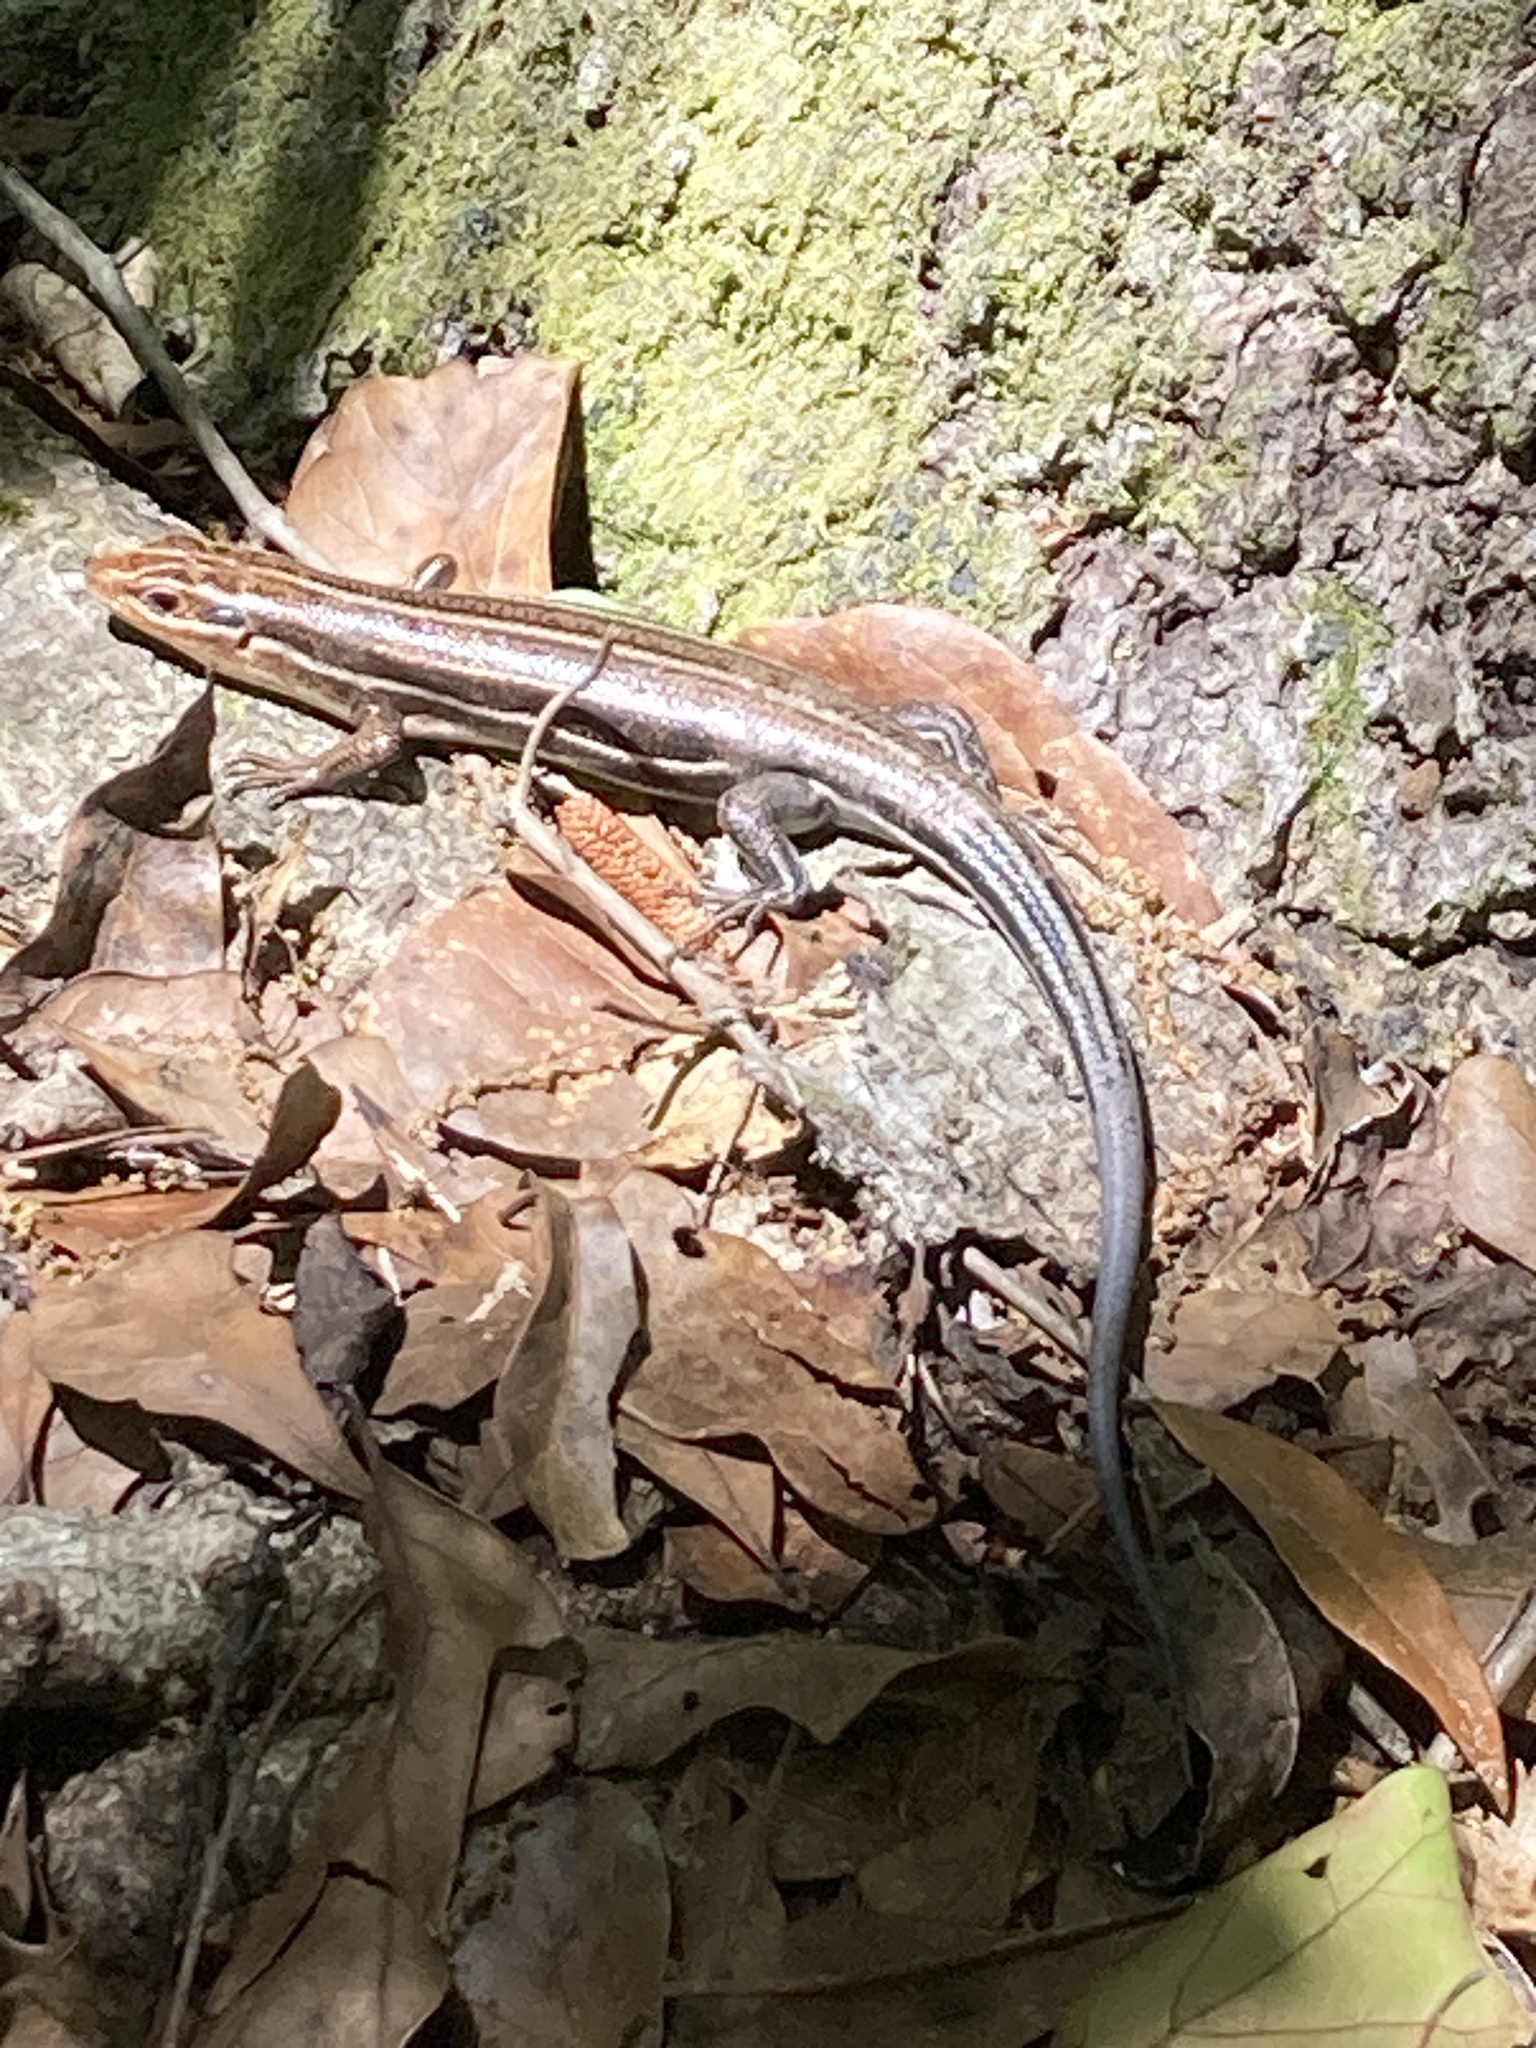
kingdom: Animalia
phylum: Chordata
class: Squamata
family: Scincidae
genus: Plestiodon
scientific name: Plestiodon
